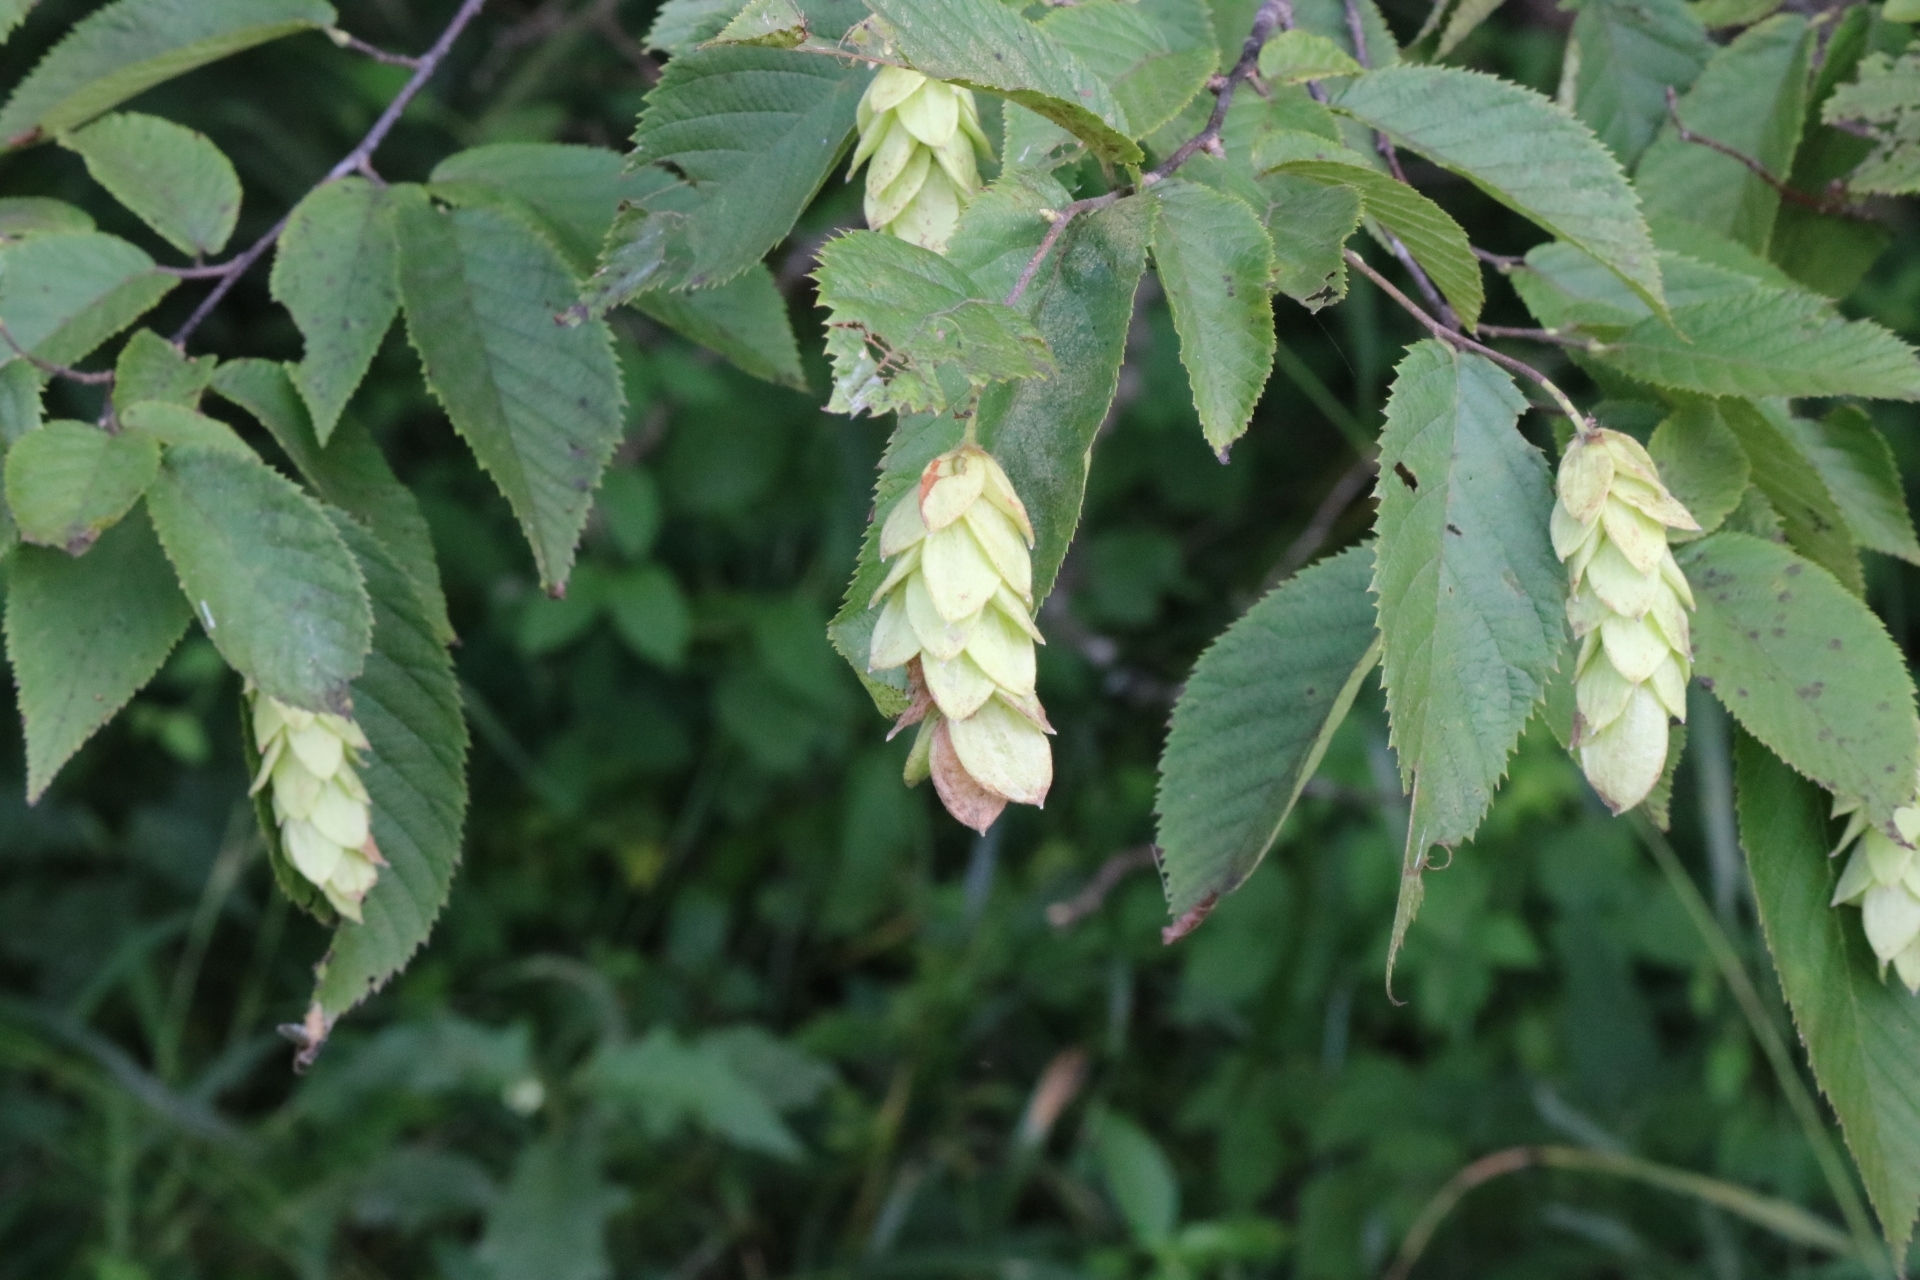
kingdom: Plantae
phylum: Tracheophyta
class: Magnoliopsida
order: Fagales
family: Betulaceae
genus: Ostrya
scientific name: Ostrya virginiana
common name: Ironwood
